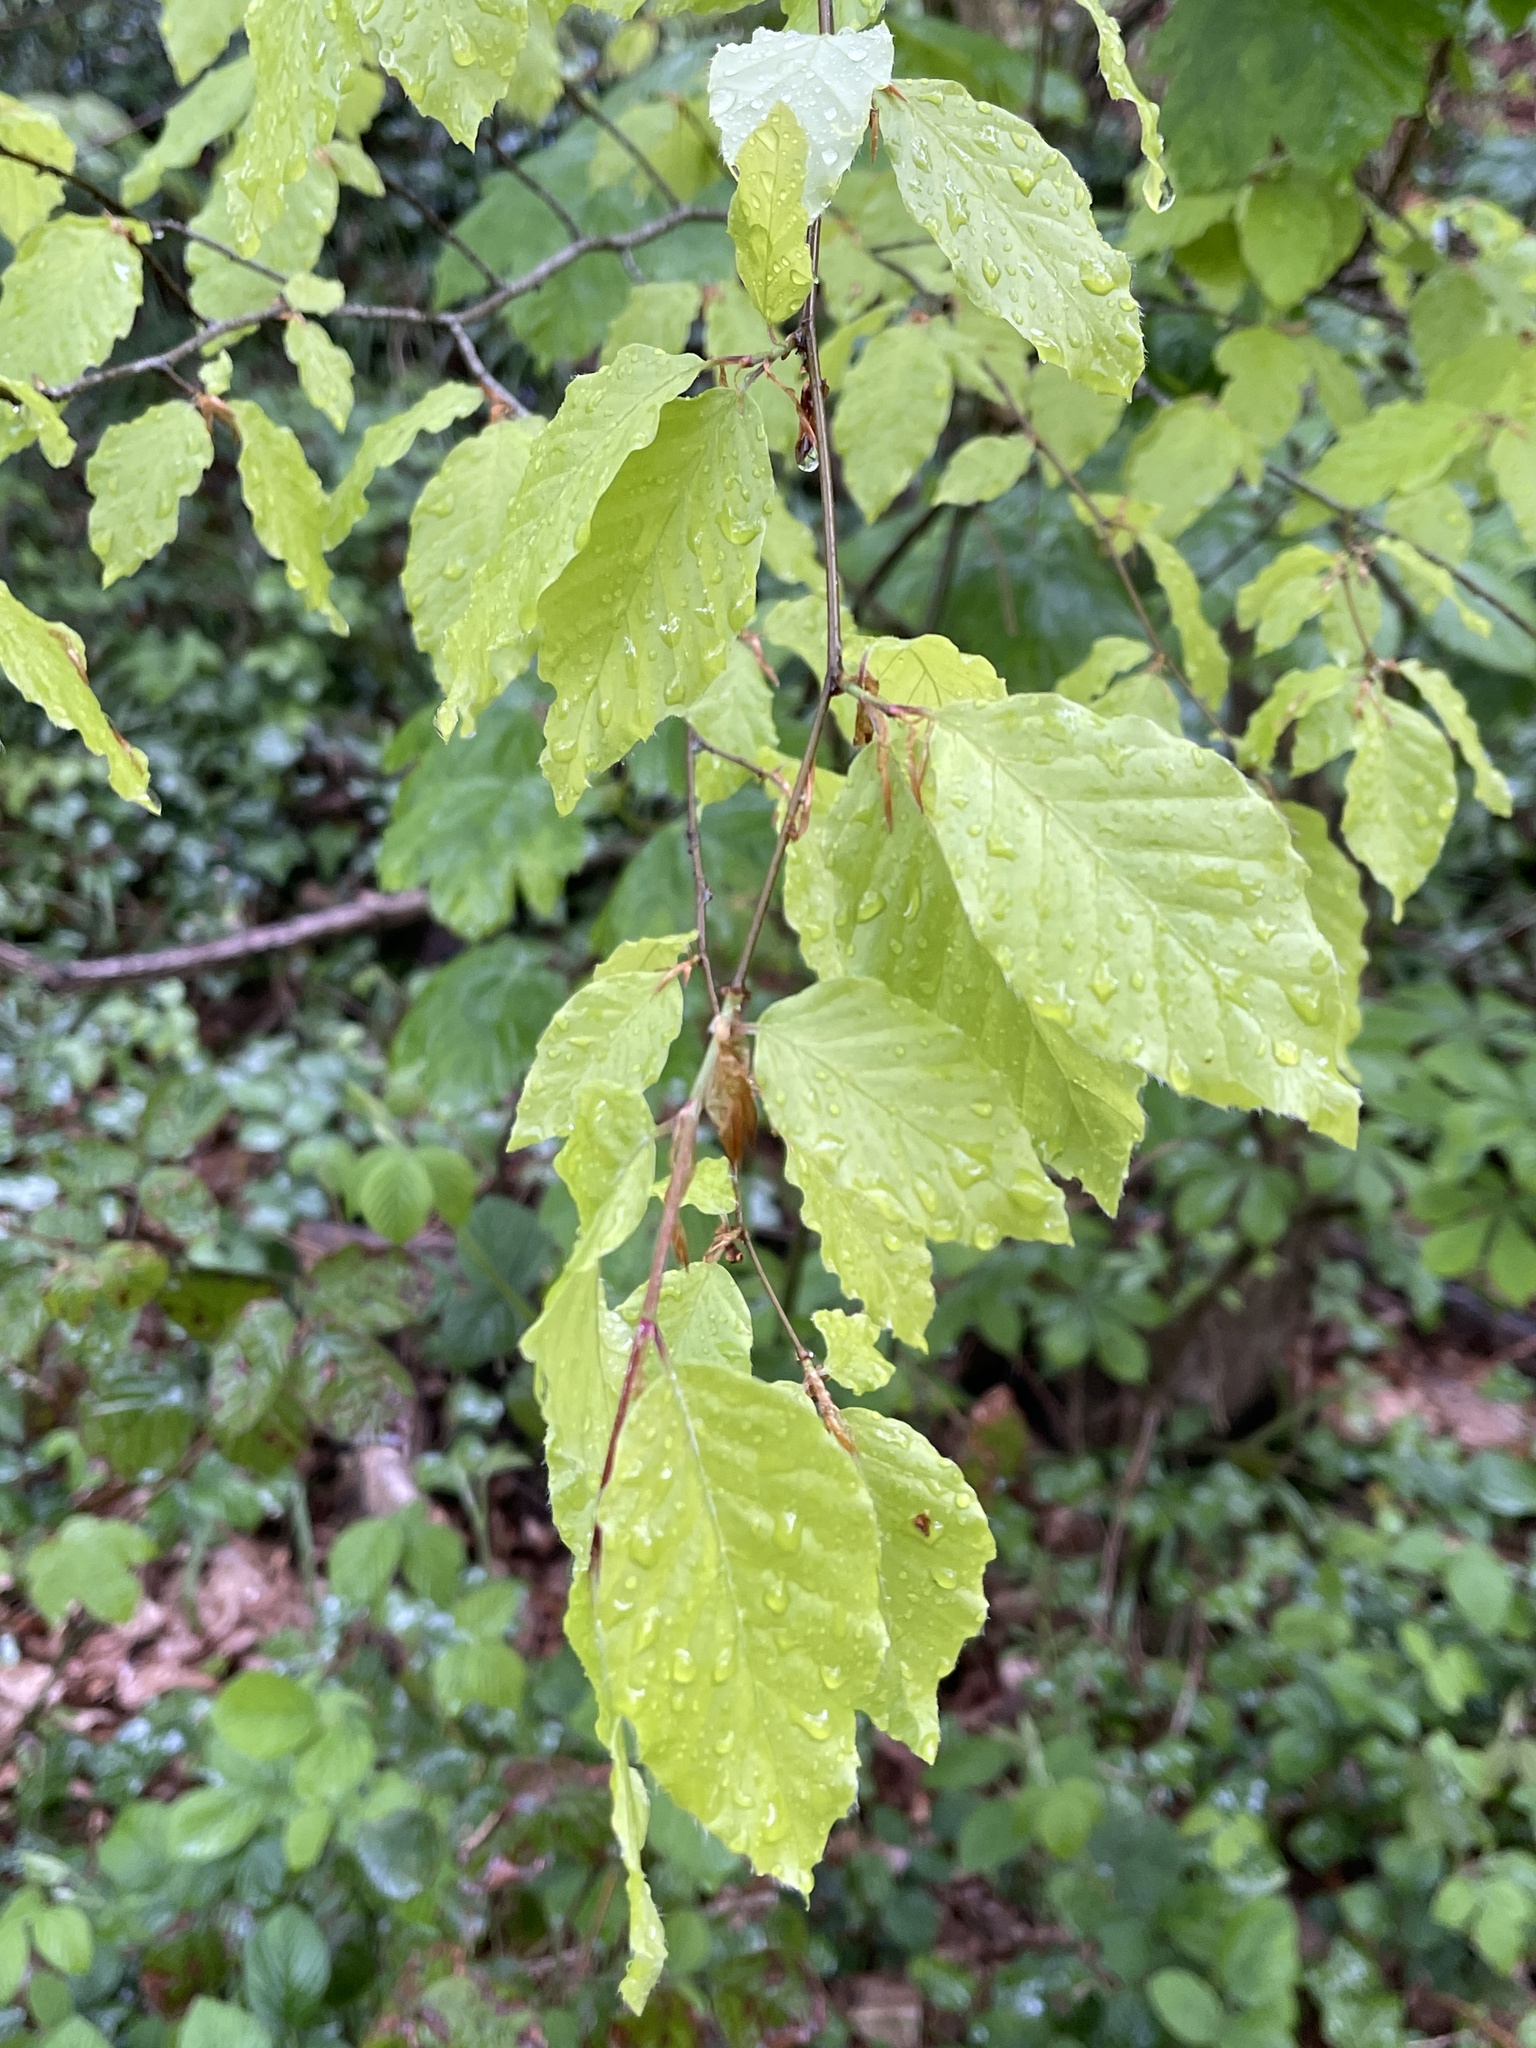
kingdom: Plantae
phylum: Tracheophyta
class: Magnoliopsida
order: Fagales
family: Fagaceae
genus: Fagus
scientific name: Fagus sylvatica
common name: Beech
